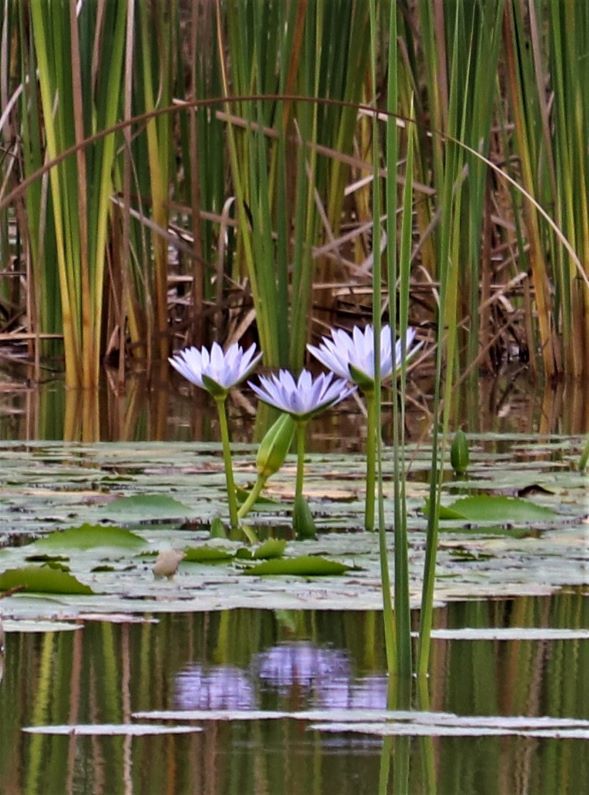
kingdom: Plantae
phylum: Tracheophyta
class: Magnoliopsida
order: Nymphaeales
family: Nymphaeaceae
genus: Nymphaea
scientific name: Nymphaea nouchali
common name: Blue lotus
